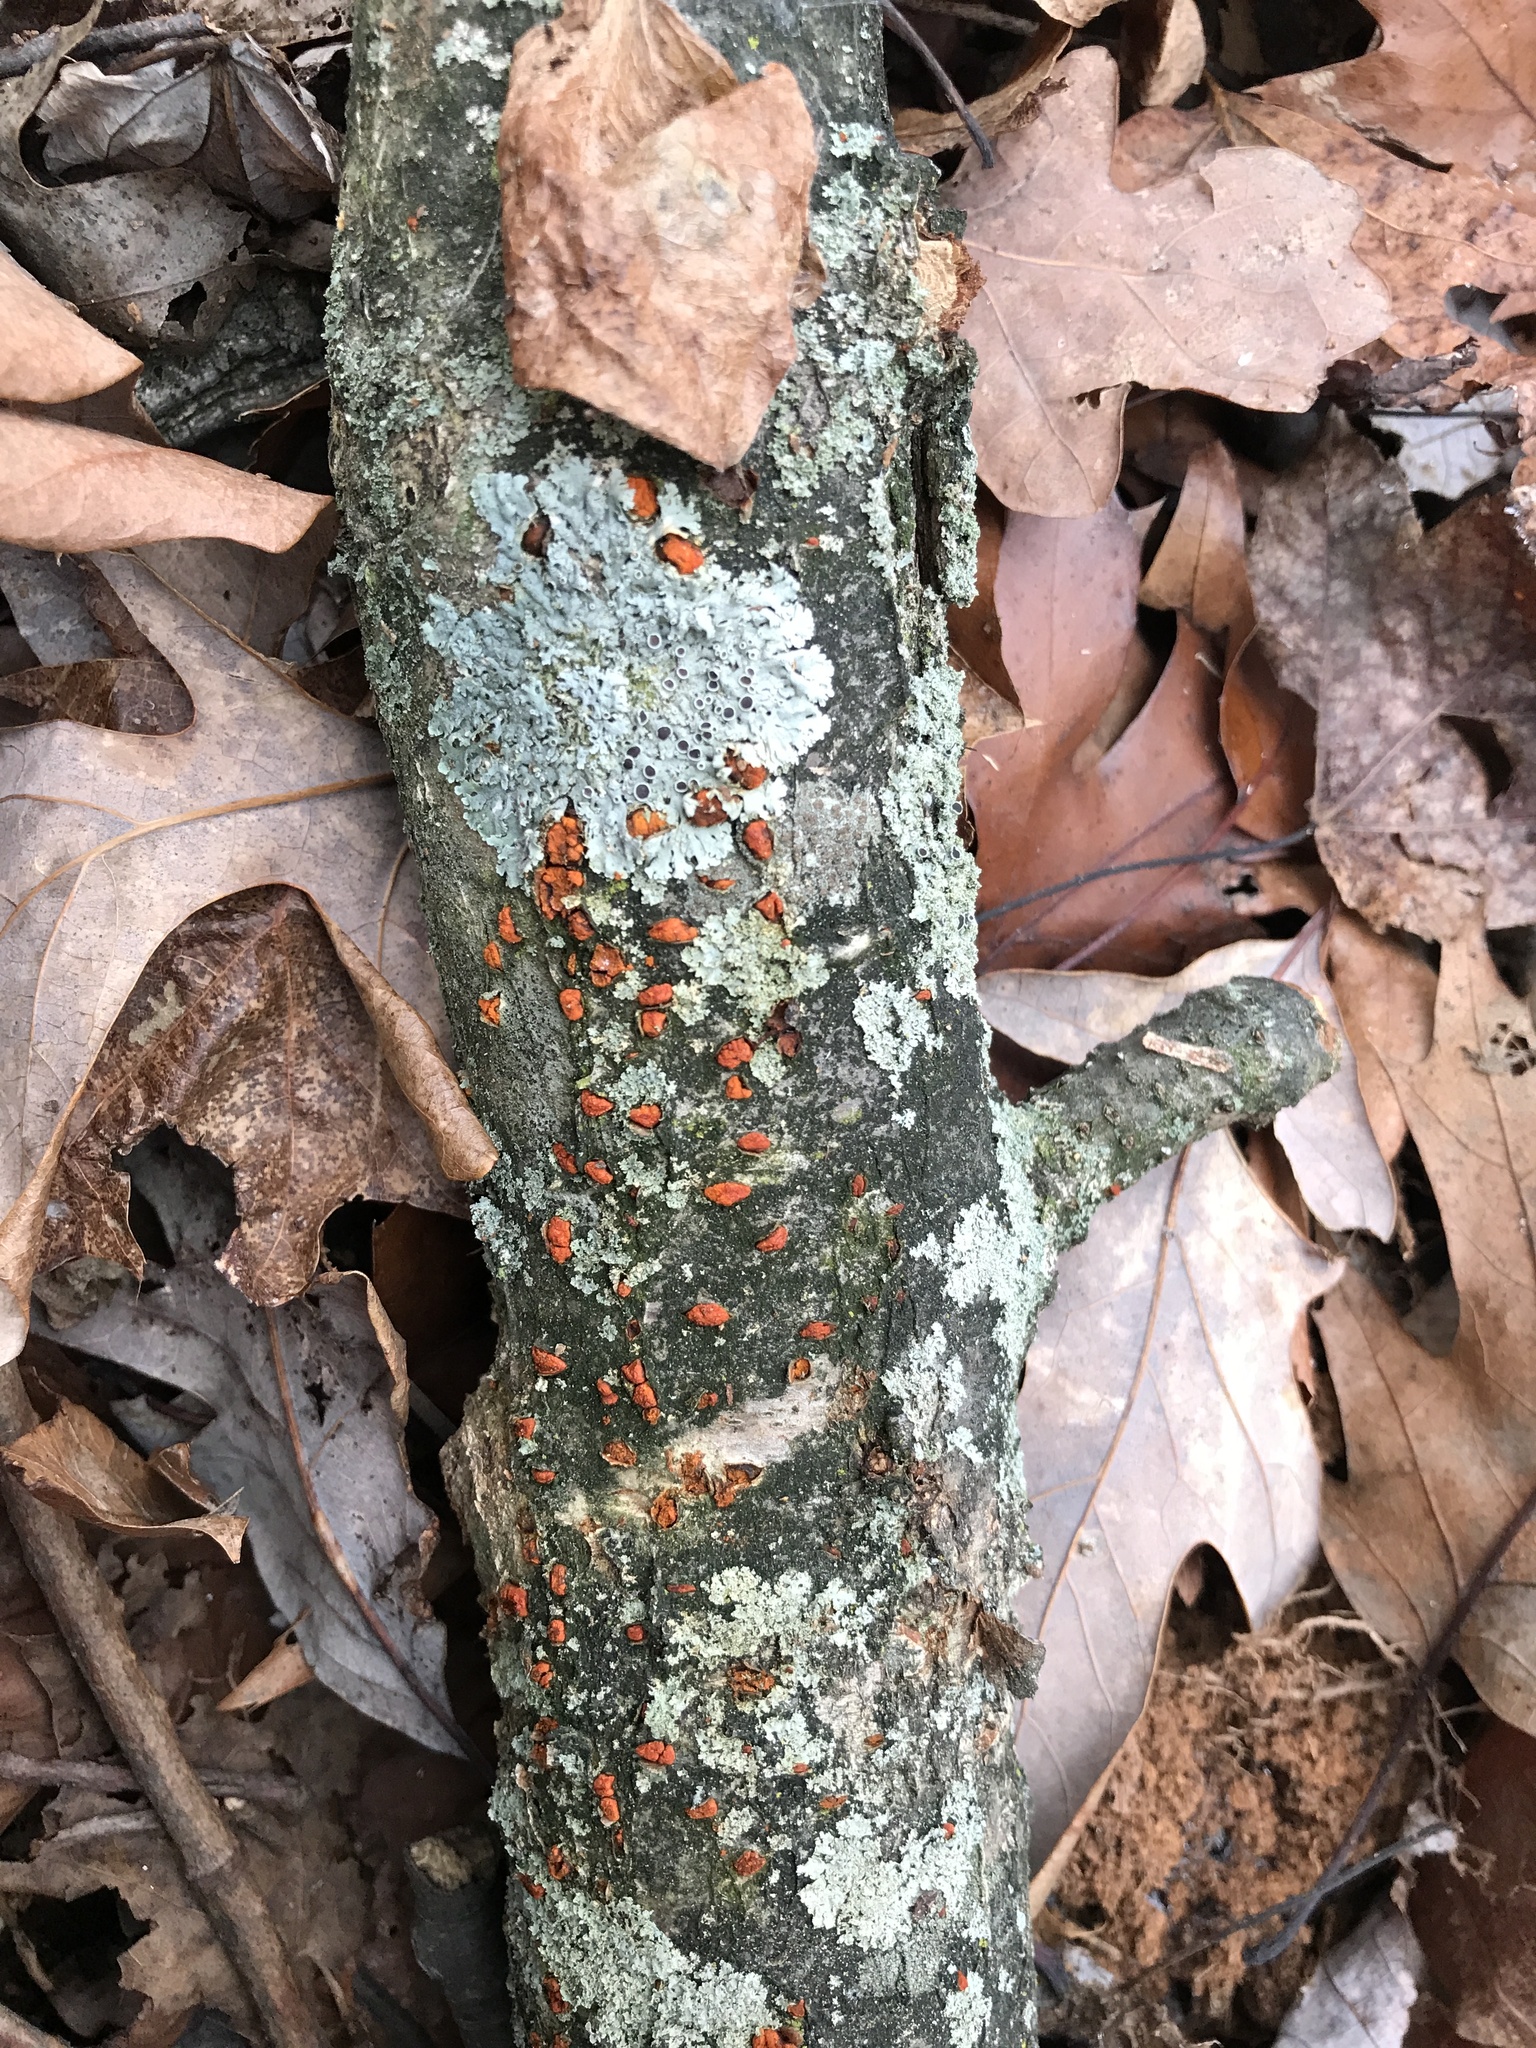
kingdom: Fungi
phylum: Ascomycota
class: Sordariomycetes
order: Diaporthales
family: Cryphonectriaceae
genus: Amphilogia
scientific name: Amphilogia gyrosa
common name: Orange hobnail canker
